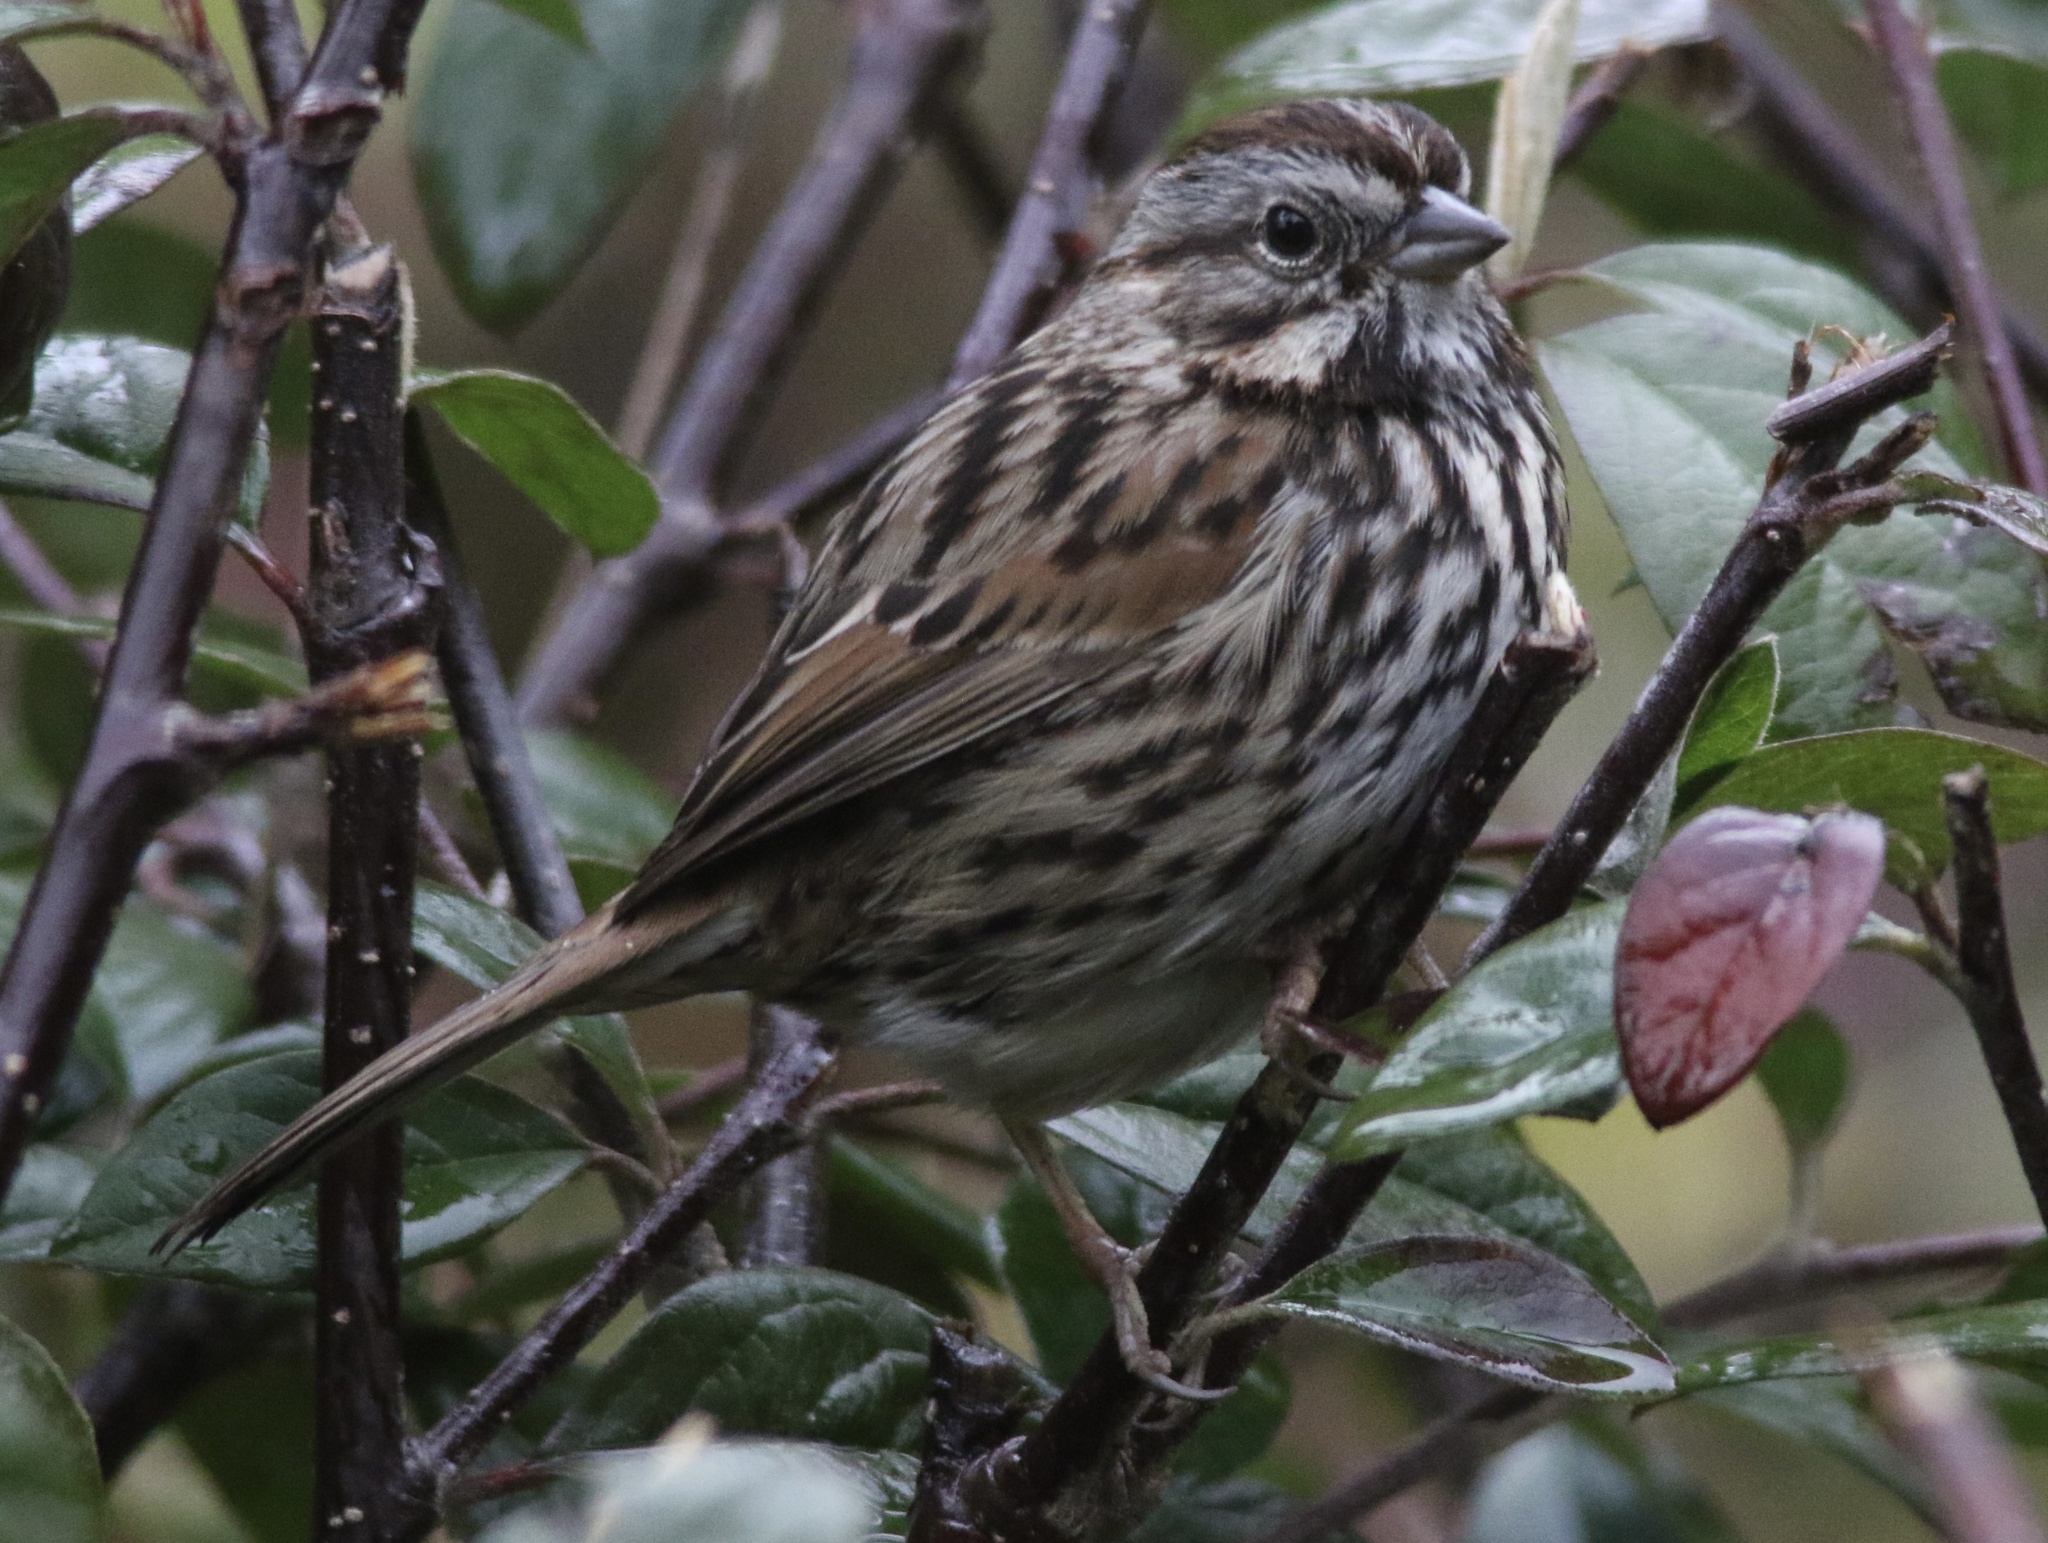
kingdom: Animalia
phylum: Chordata
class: Aves
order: Passeriformes
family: Passerellidae
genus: Melospiza
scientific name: Melospiza melodia
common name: Song sparrow
